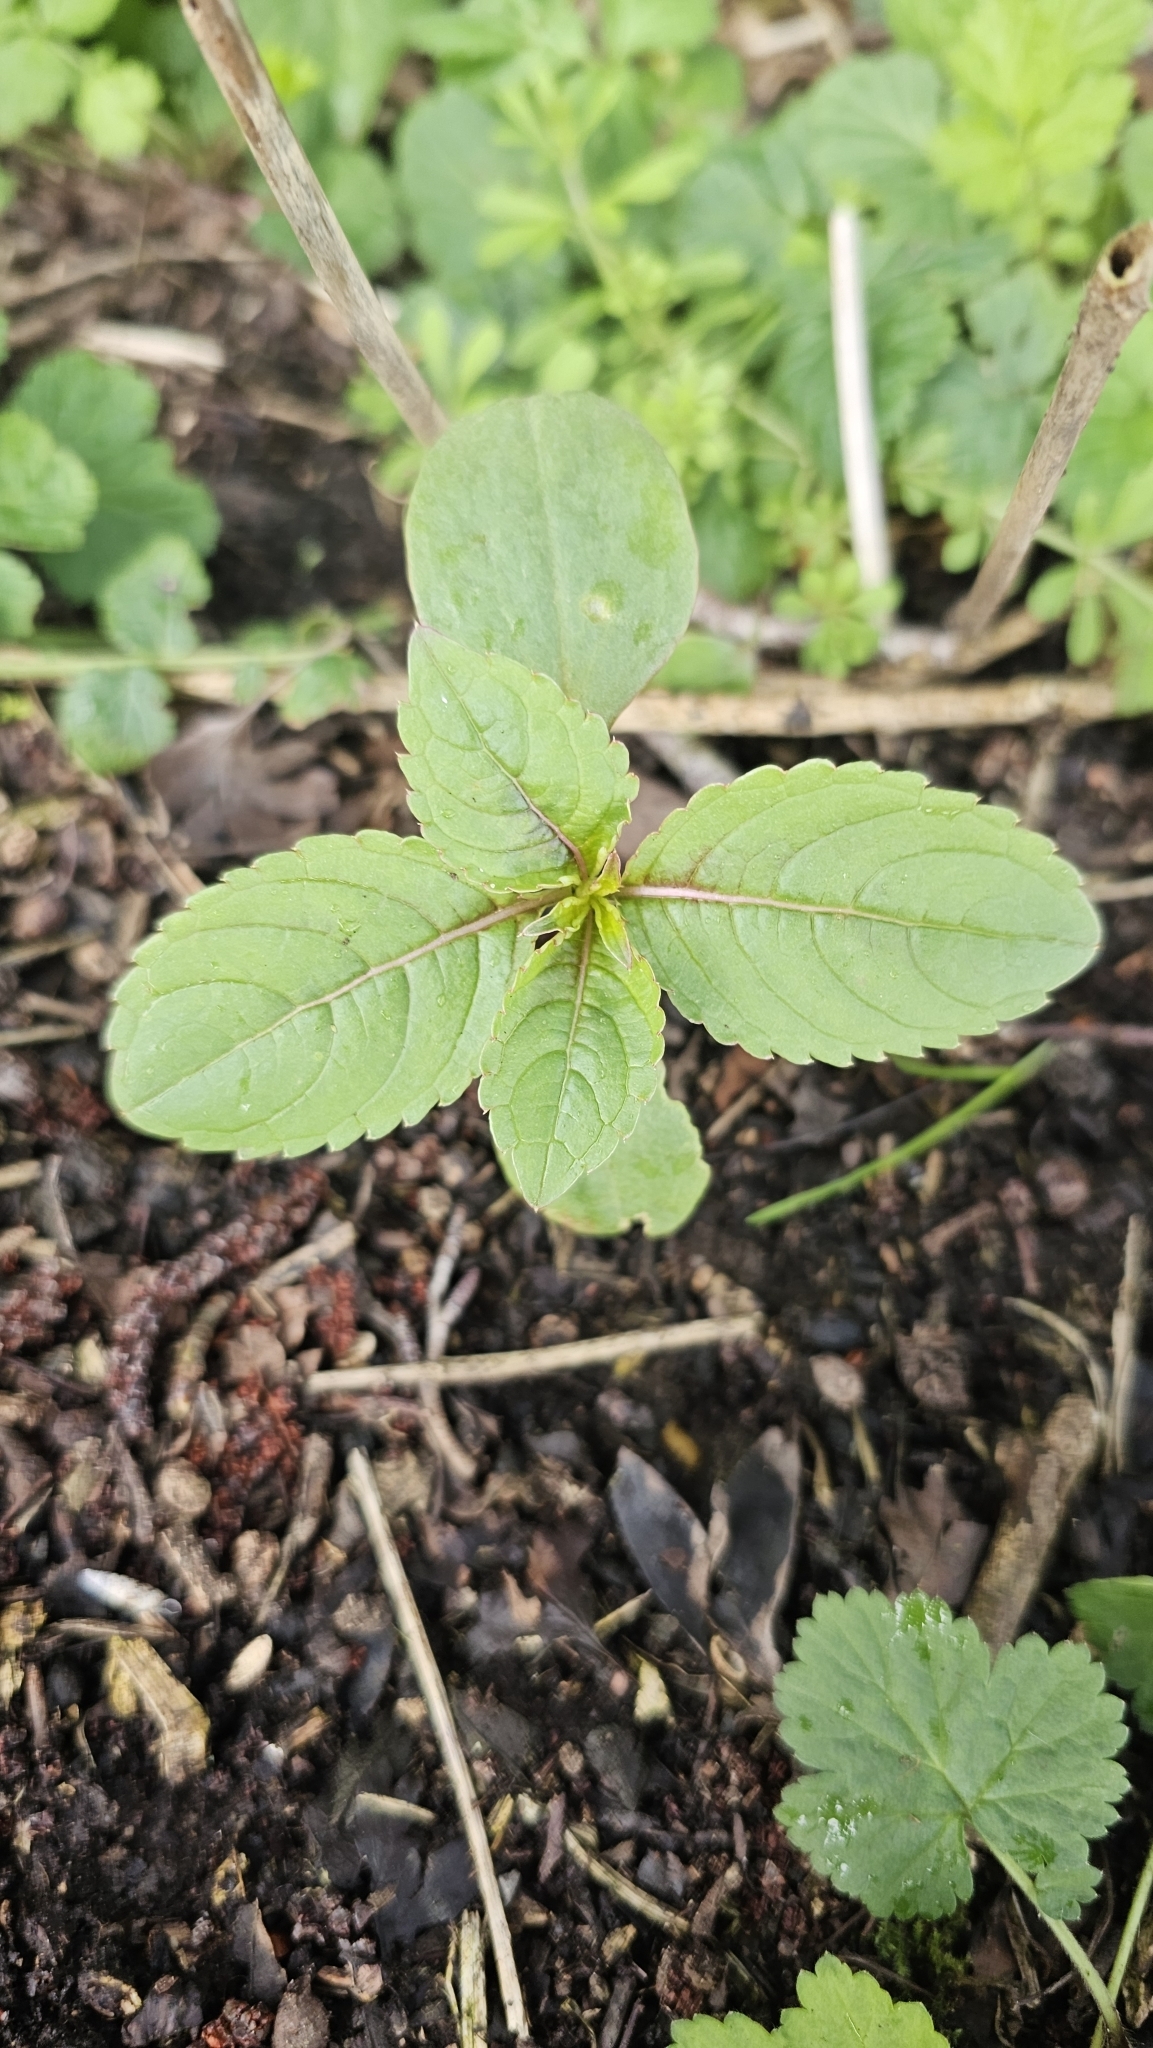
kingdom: Plantae
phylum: Tracheophyta
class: Magnoliopsida
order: Ericales
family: Balsaminaceae
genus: Impatiens
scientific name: Impatiens glandulifera
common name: Himalayan balsam
